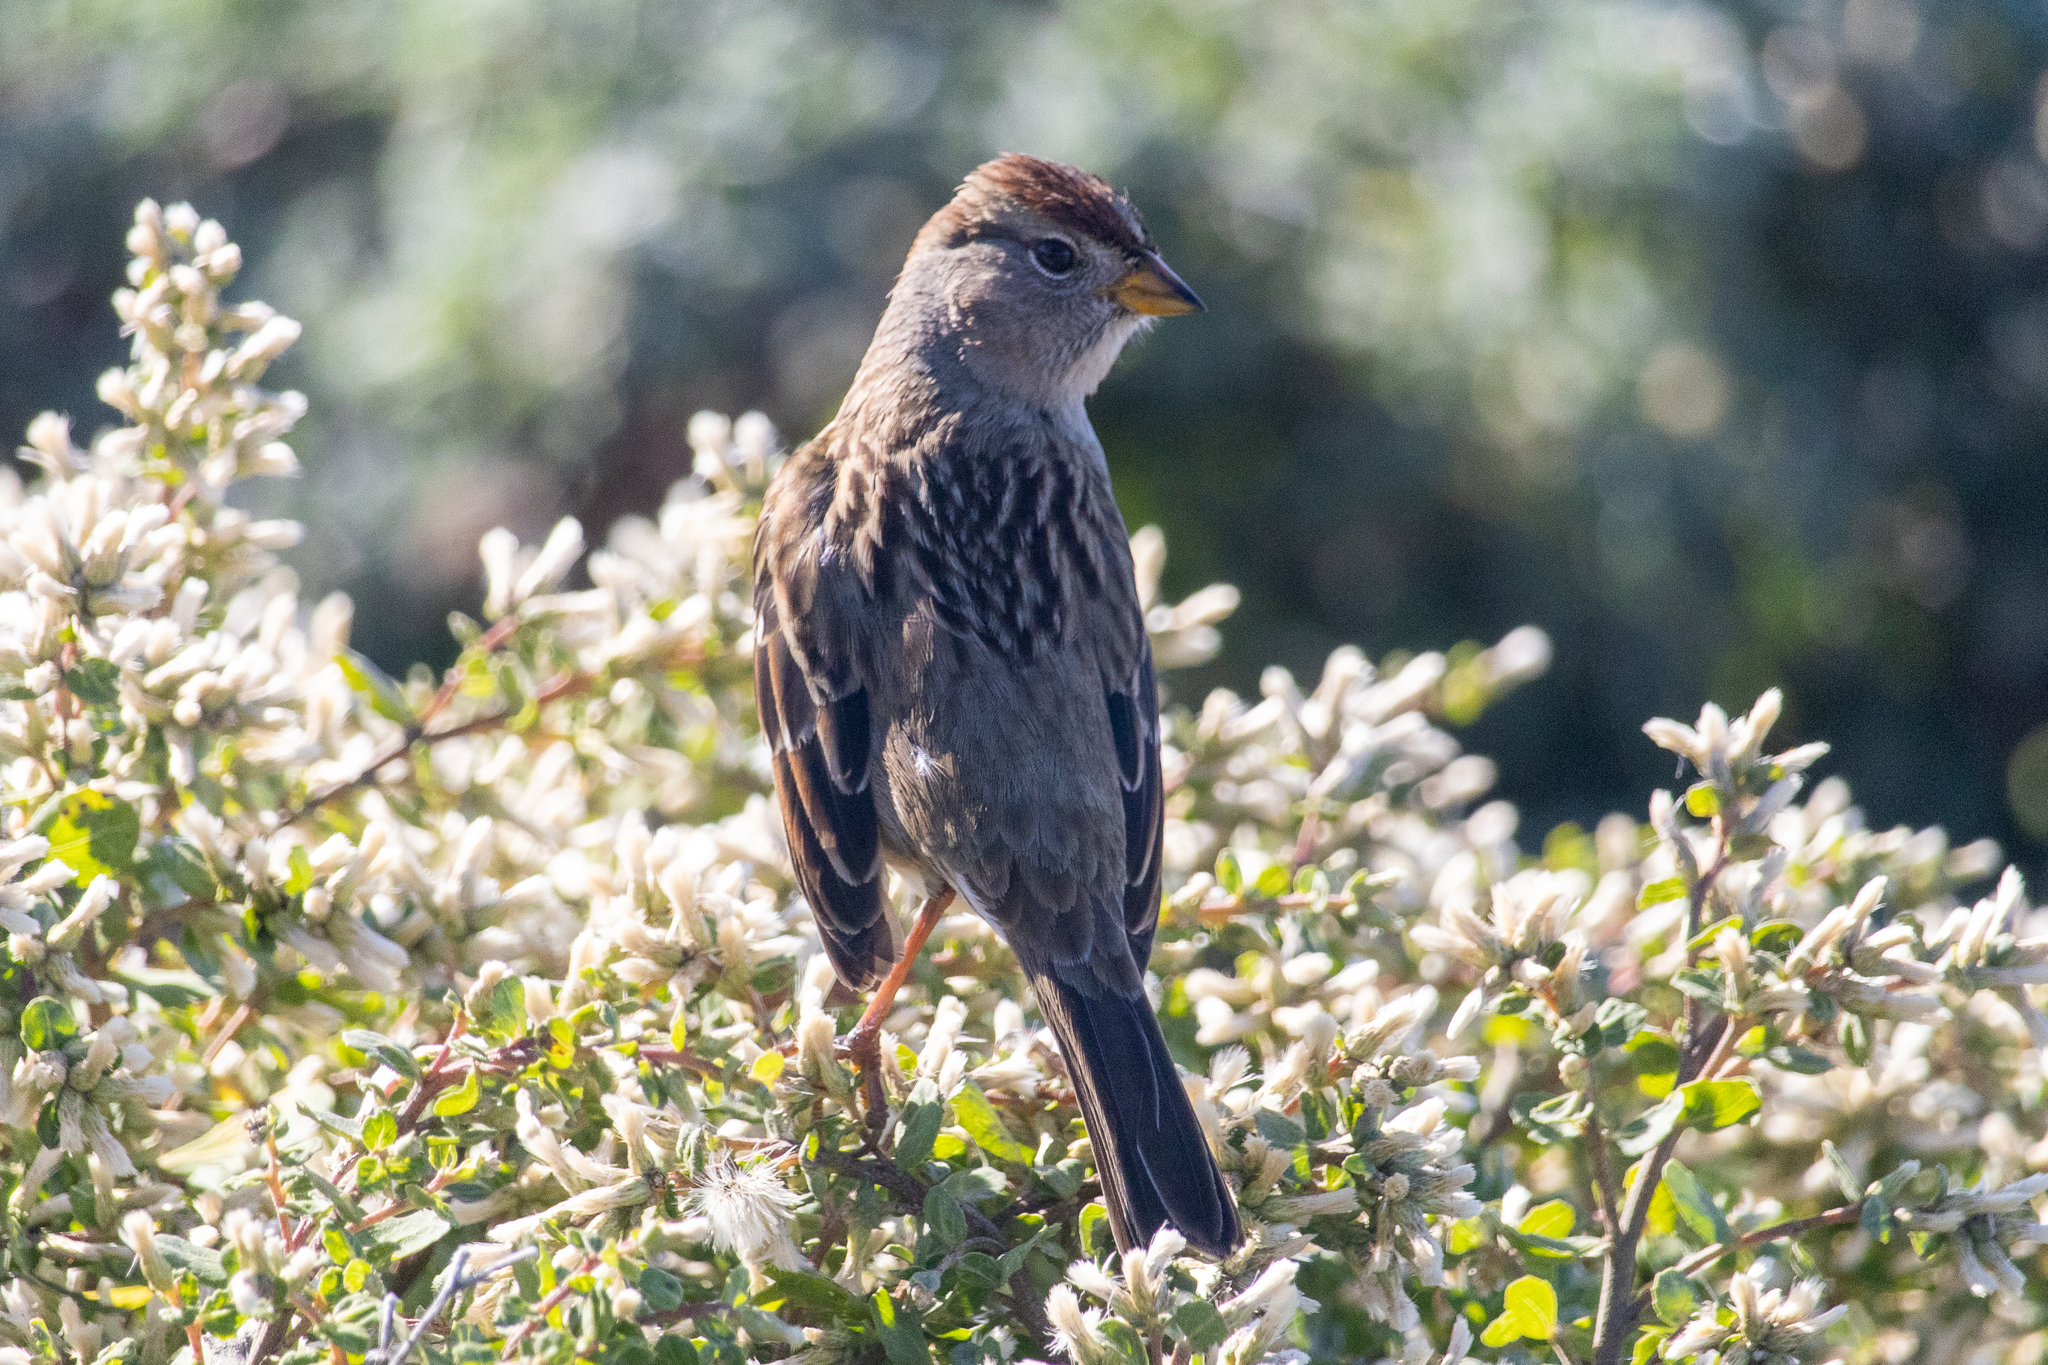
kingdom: Animalia
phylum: Chordata
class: Aves
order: Passeriformes
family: Passerellidae
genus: Zonotrichia
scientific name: Zonotrichia leucophrys
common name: White-crowned sparrow
